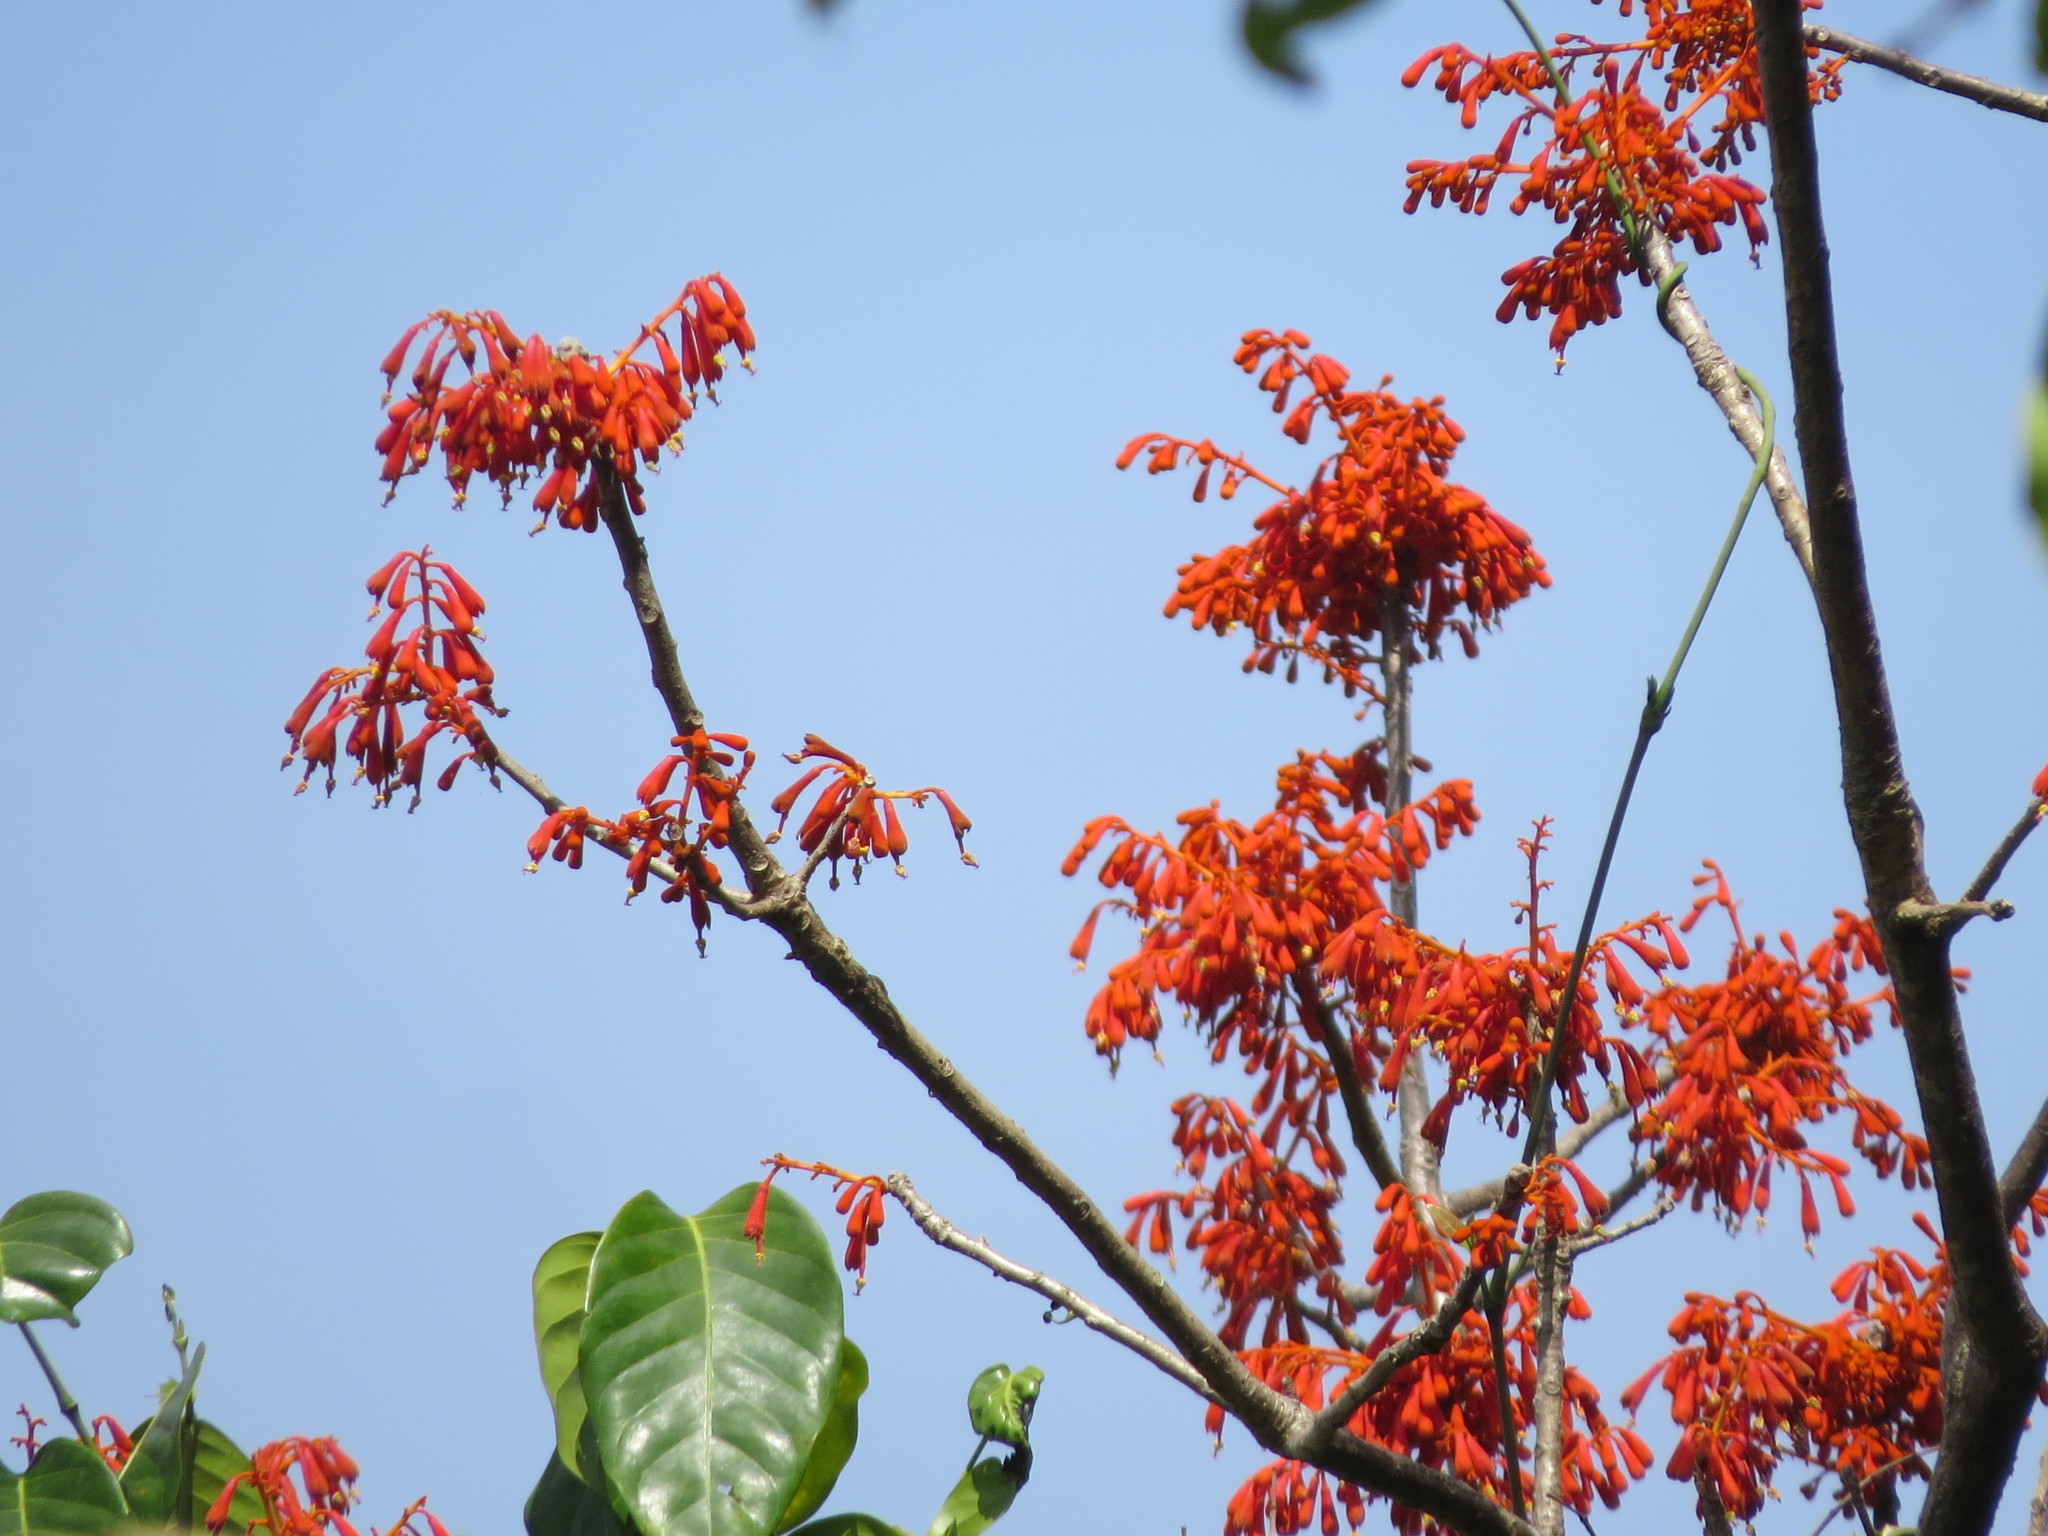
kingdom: Plantae
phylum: Tracheophyta
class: Magnoliopsida
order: Malvales
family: Malvaceae
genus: Firmiana
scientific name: Firmiana colorata
